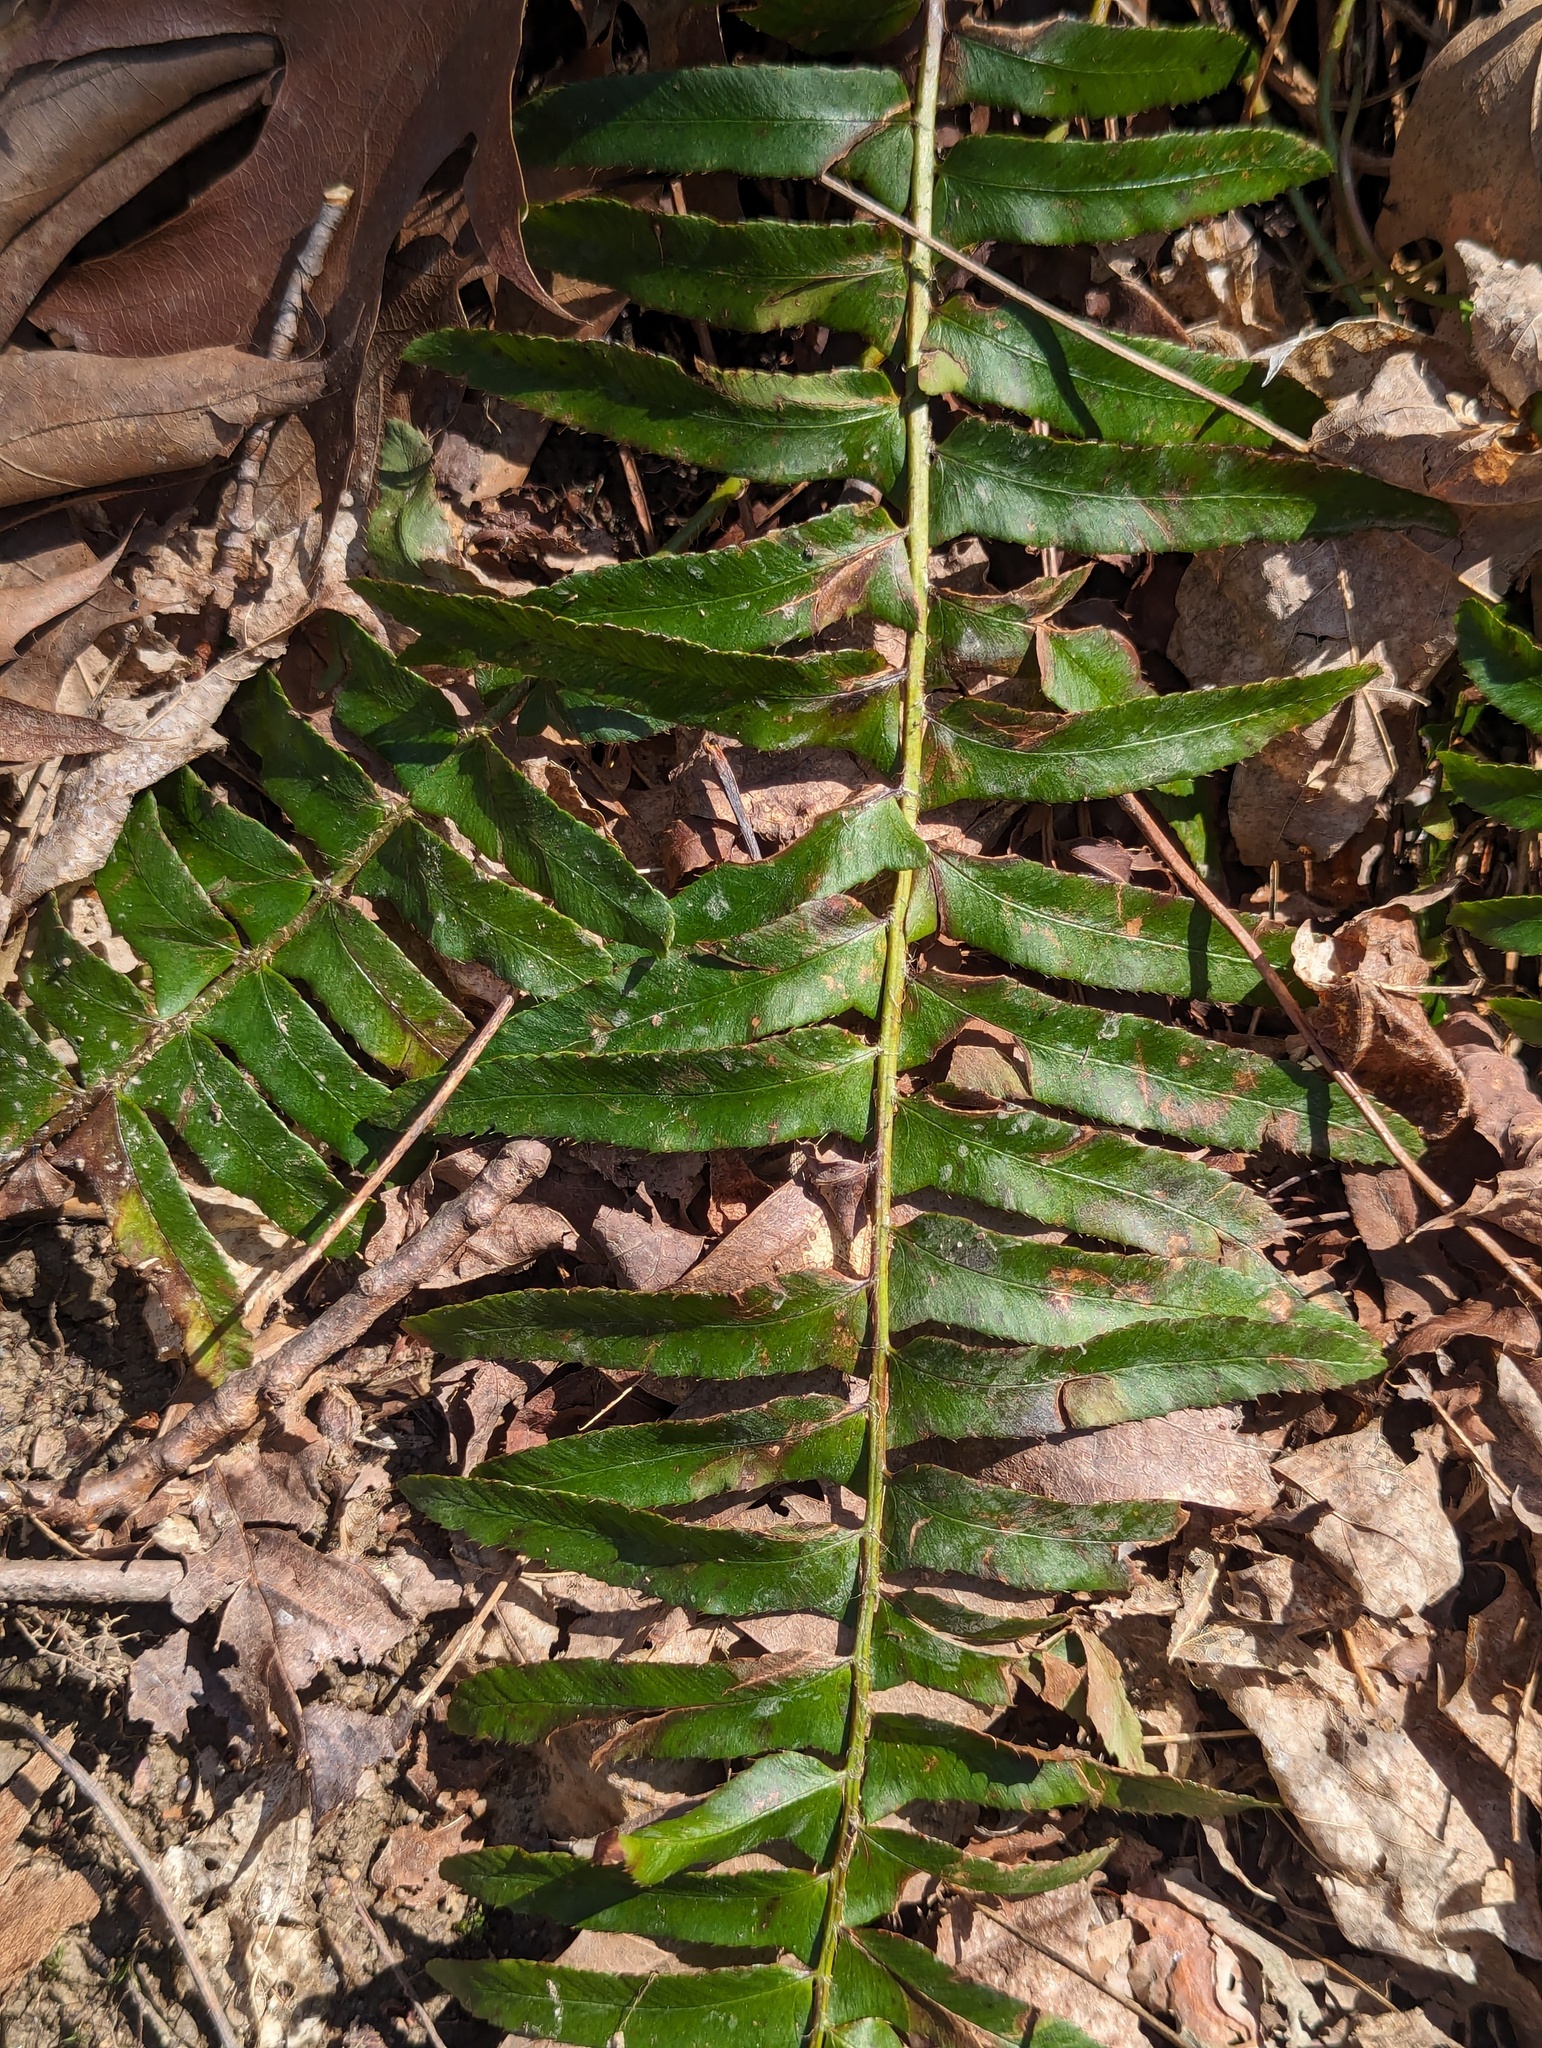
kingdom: Plantae
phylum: Tracheophyta
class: Polypodiopsida
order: Polypodiales
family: Dryopteridaceae
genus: Polystichum
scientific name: Polystichum acrostichoides
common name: Christmas fern
